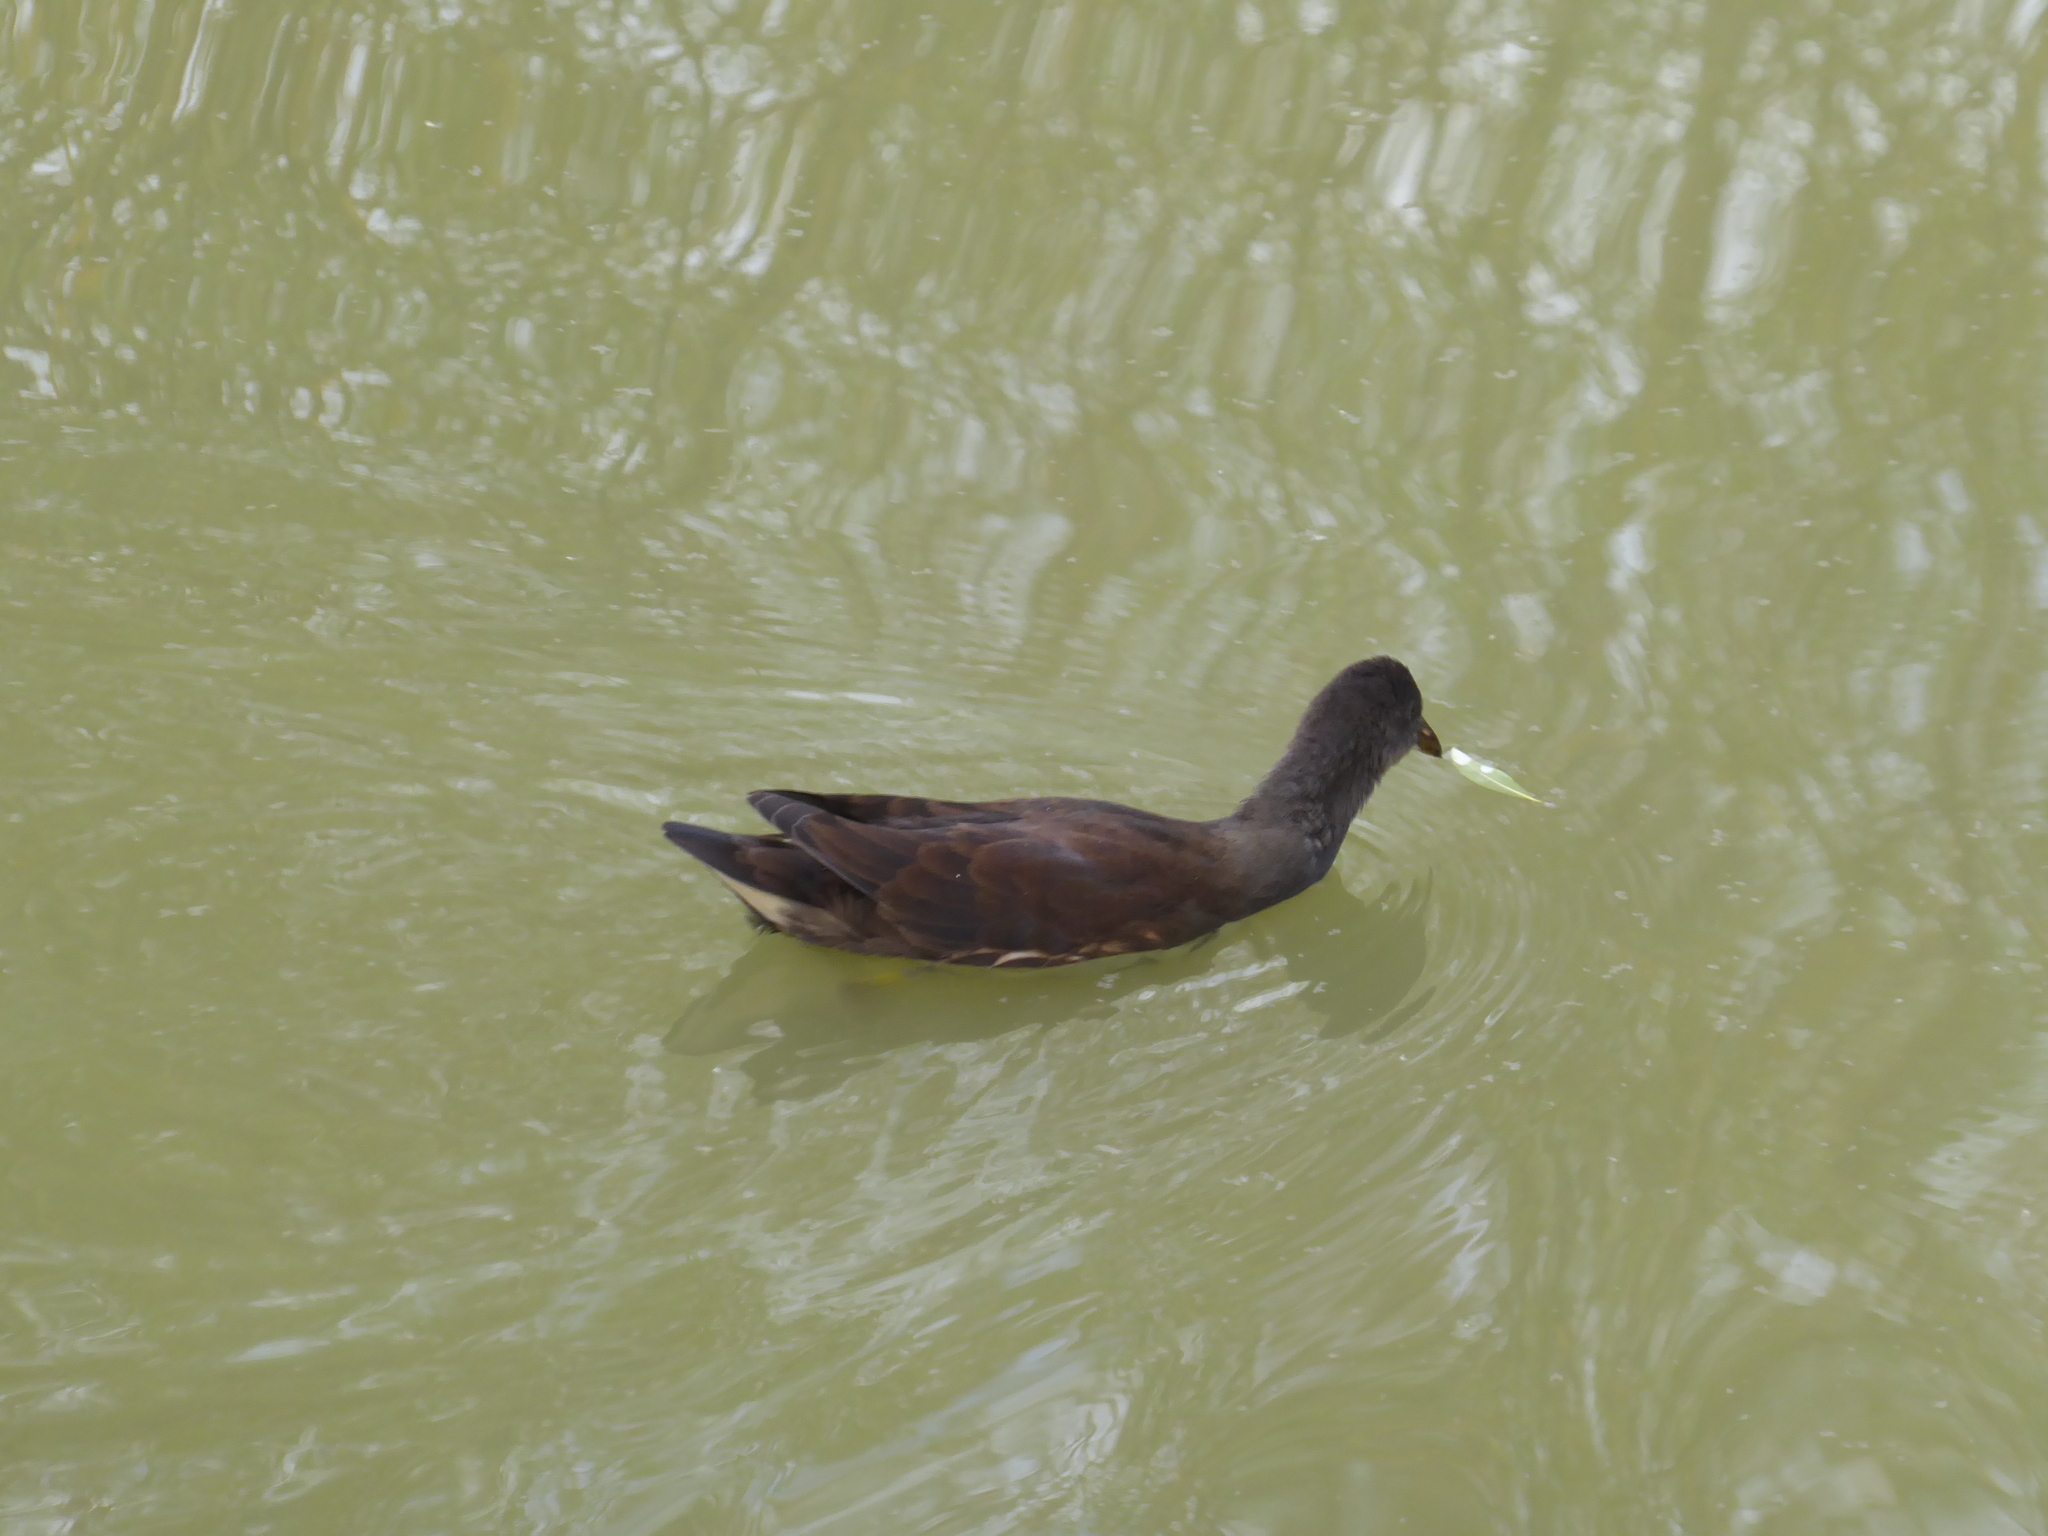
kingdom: Animalia
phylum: Chordata
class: Aves
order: Gruiformes
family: Rallidae
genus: Gallinula
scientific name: Gallinula chloropus
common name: Common moorhen
